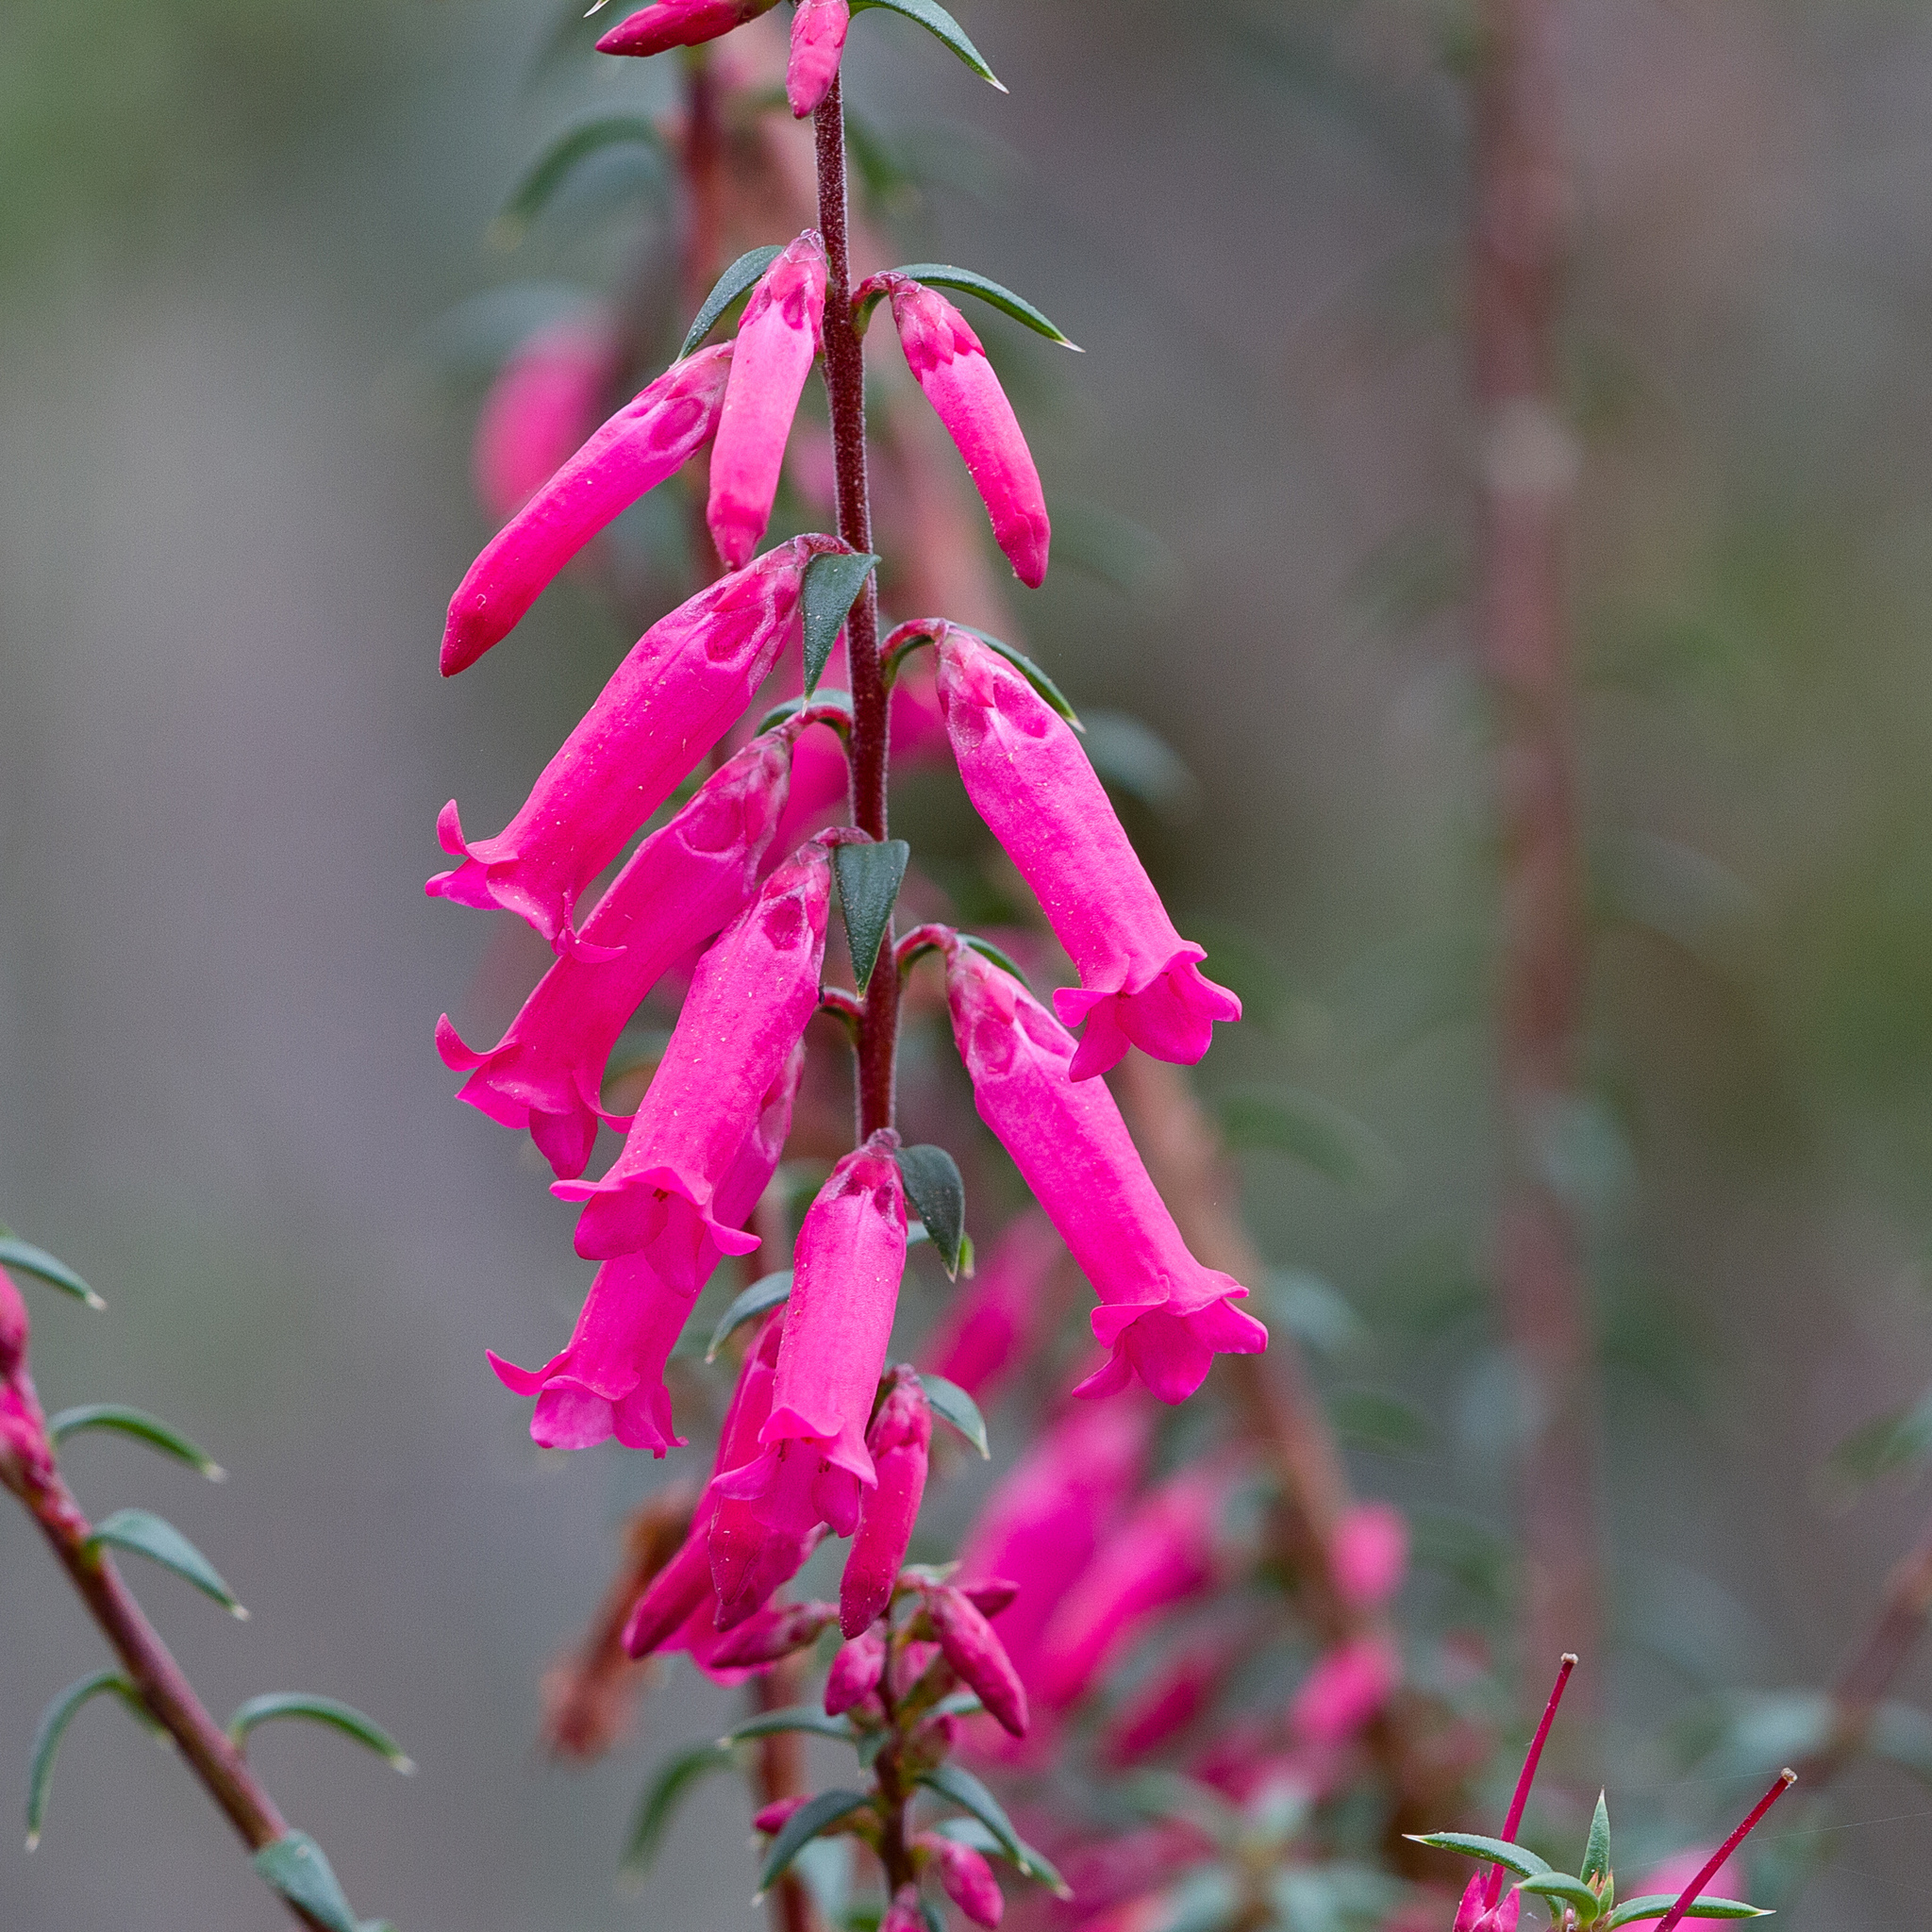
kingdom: Plantae
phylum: Tracheophyta
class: Magnoliopsida
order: Ericales
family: Ericaceae
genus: Epacris
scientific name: Epacris impressa
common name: Common-heath
